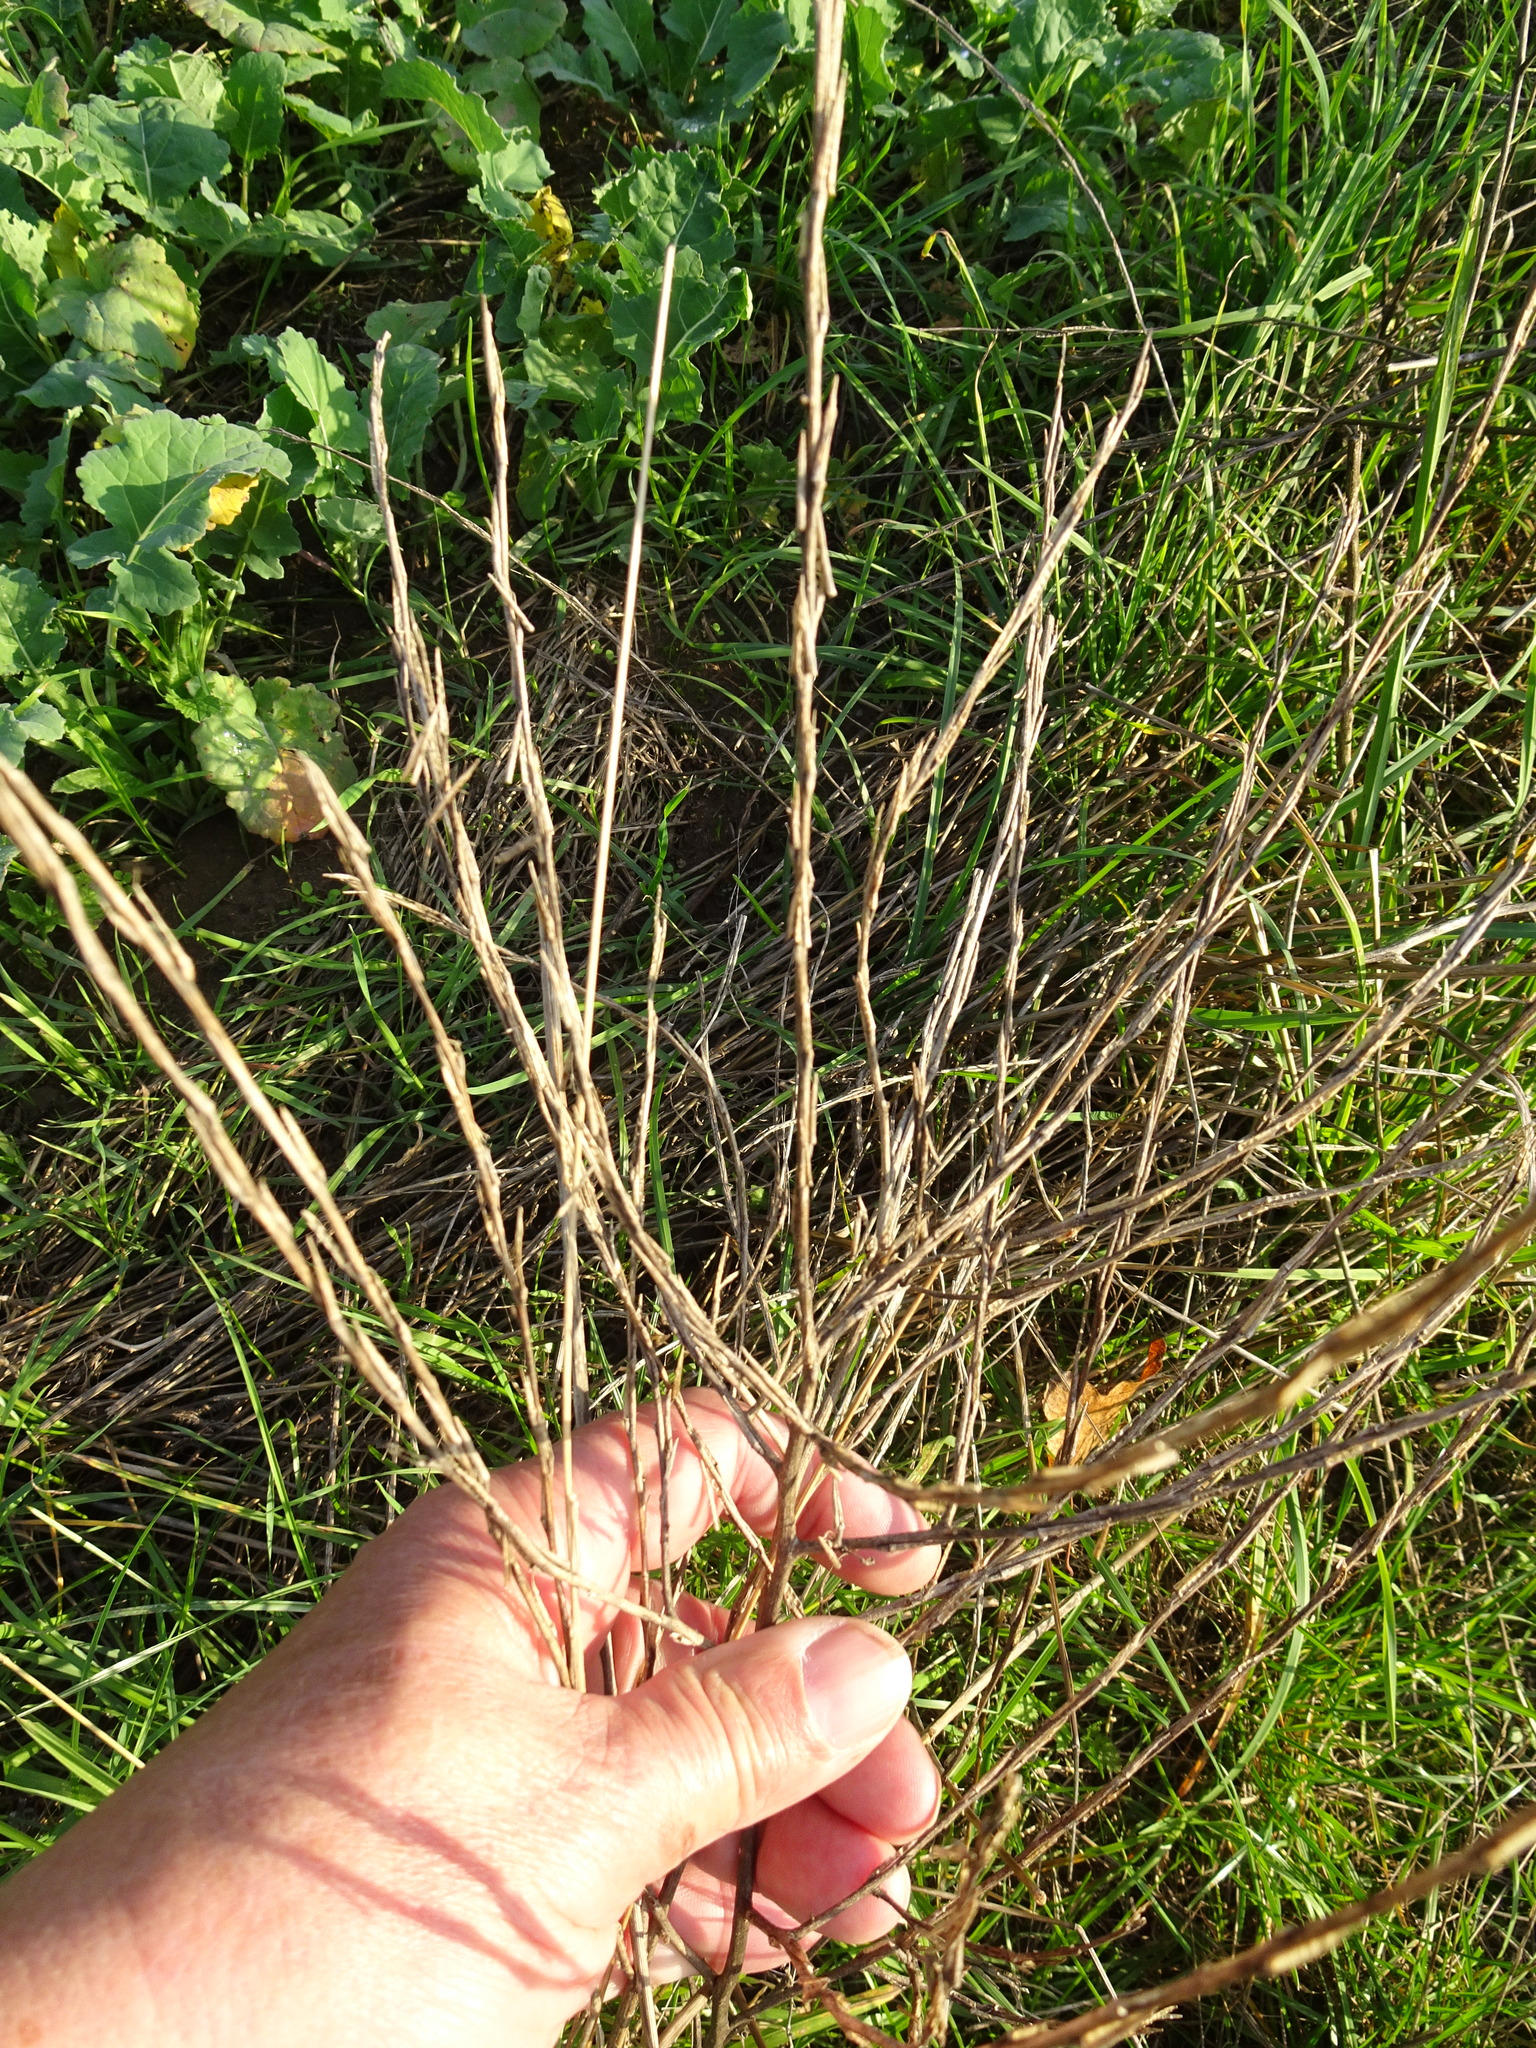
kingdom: Plantae
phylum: Tracheophyta
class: Magnoliopsida
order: Brassicales
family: Brassicaceae
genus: Sisymbrium
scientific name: Sisymbrium officinale
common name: Hedge mustard
